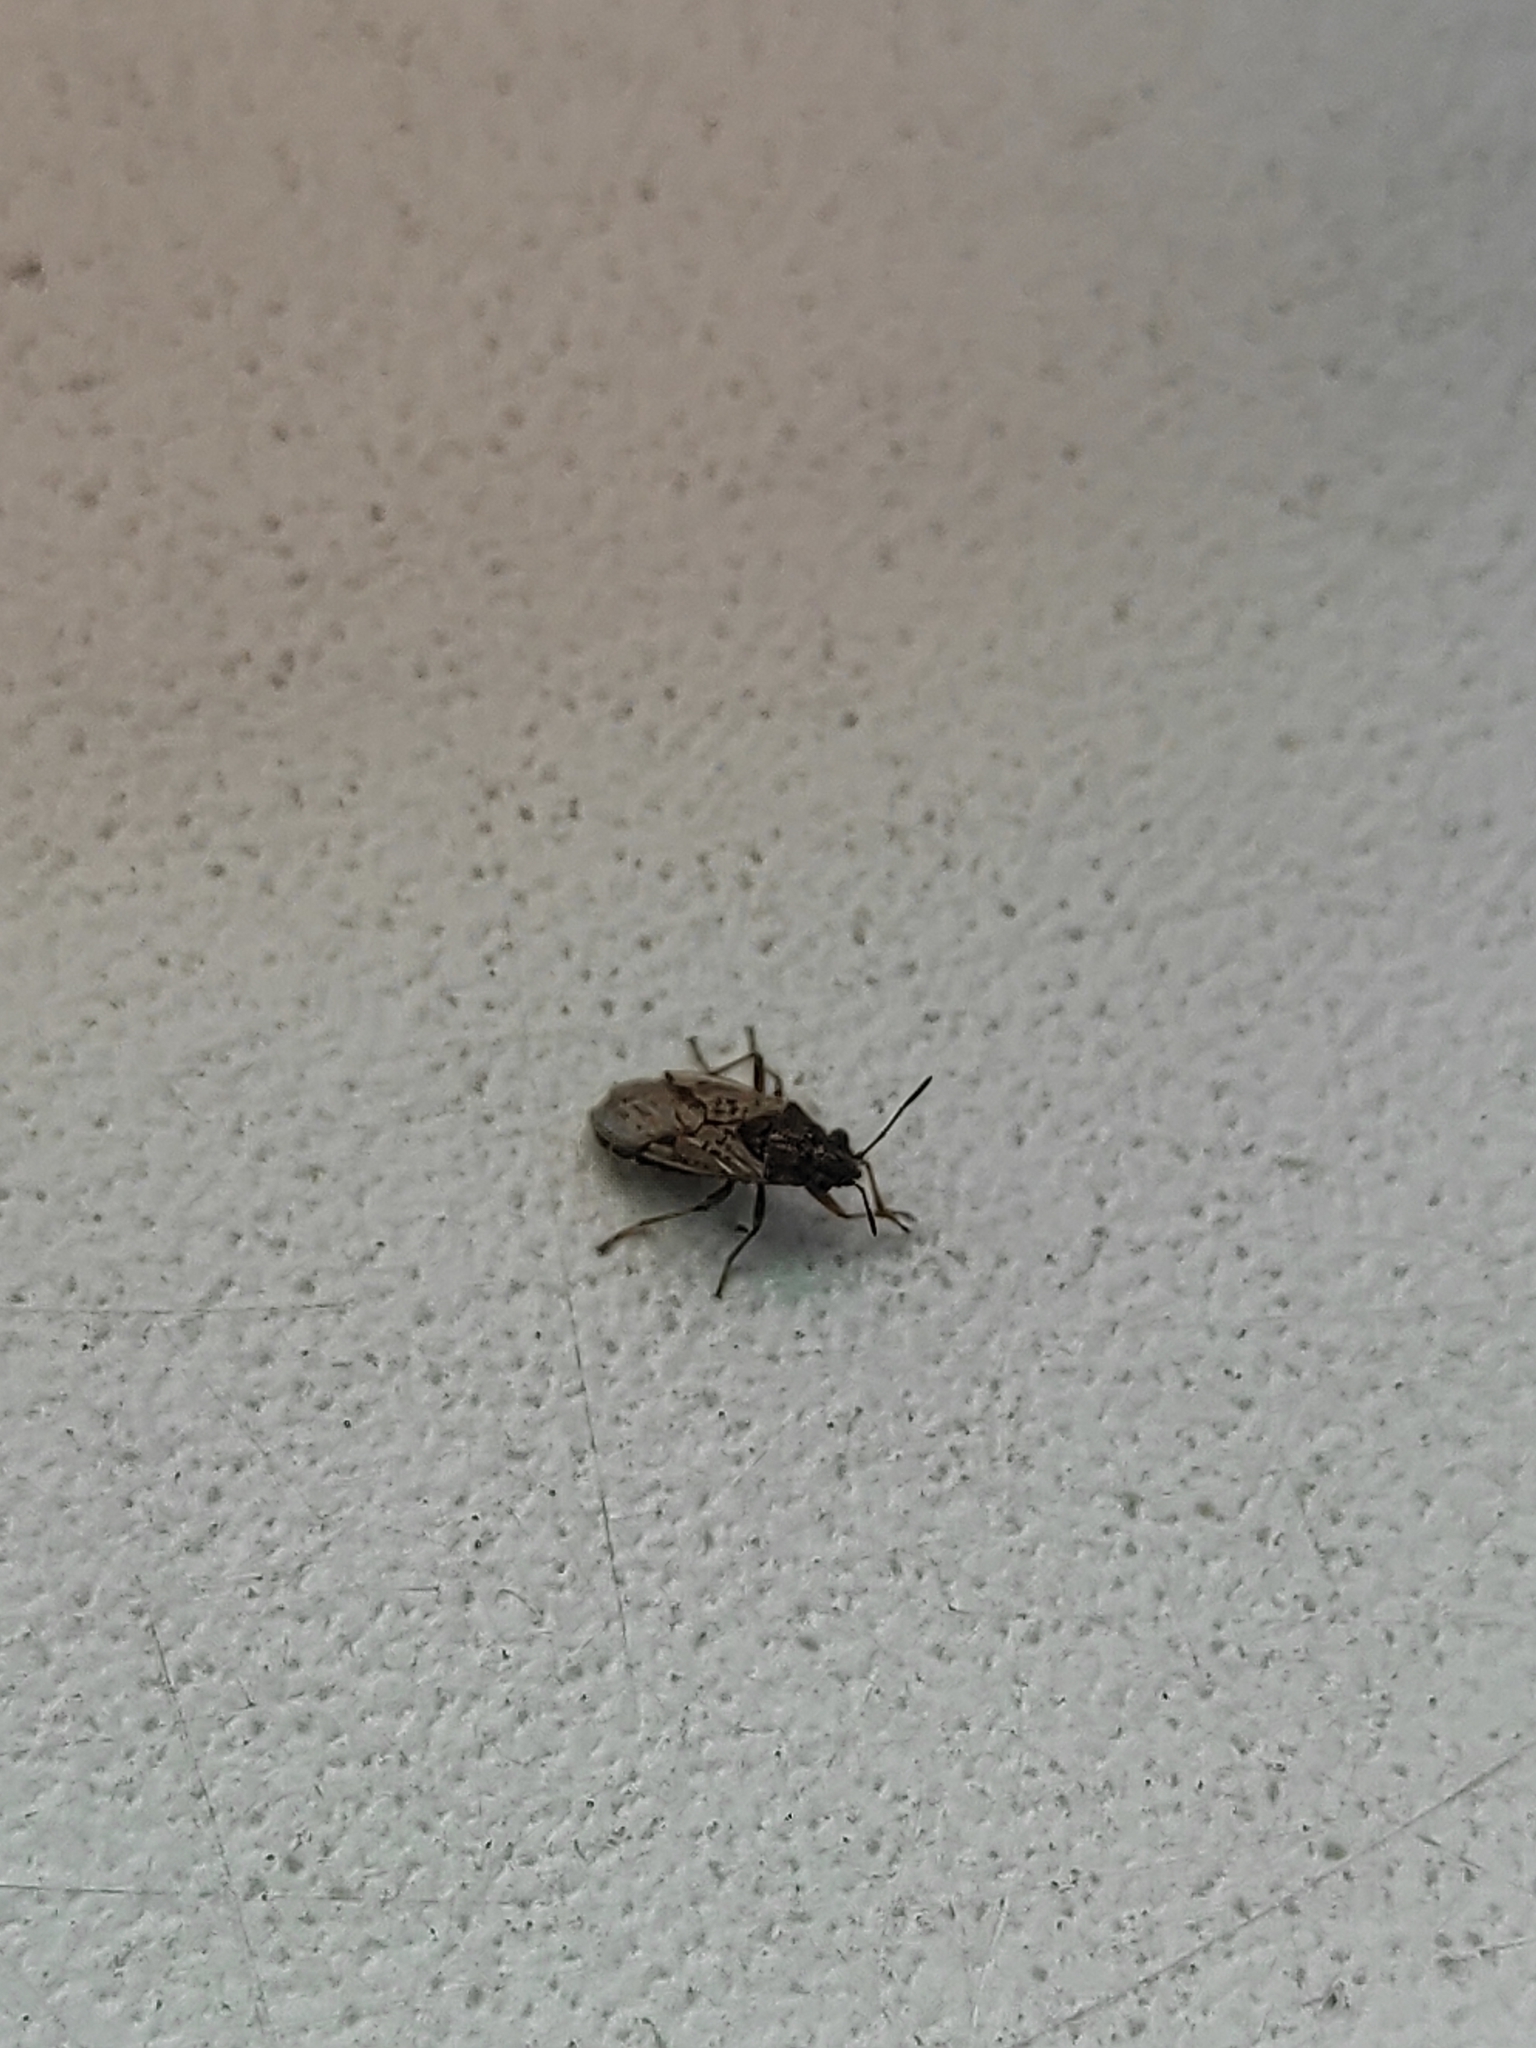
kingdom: Animalia
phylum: Arthropoda
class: Insecta
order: Hemiptera
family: Lygaeidae
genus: Nysius
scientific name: Nysius
